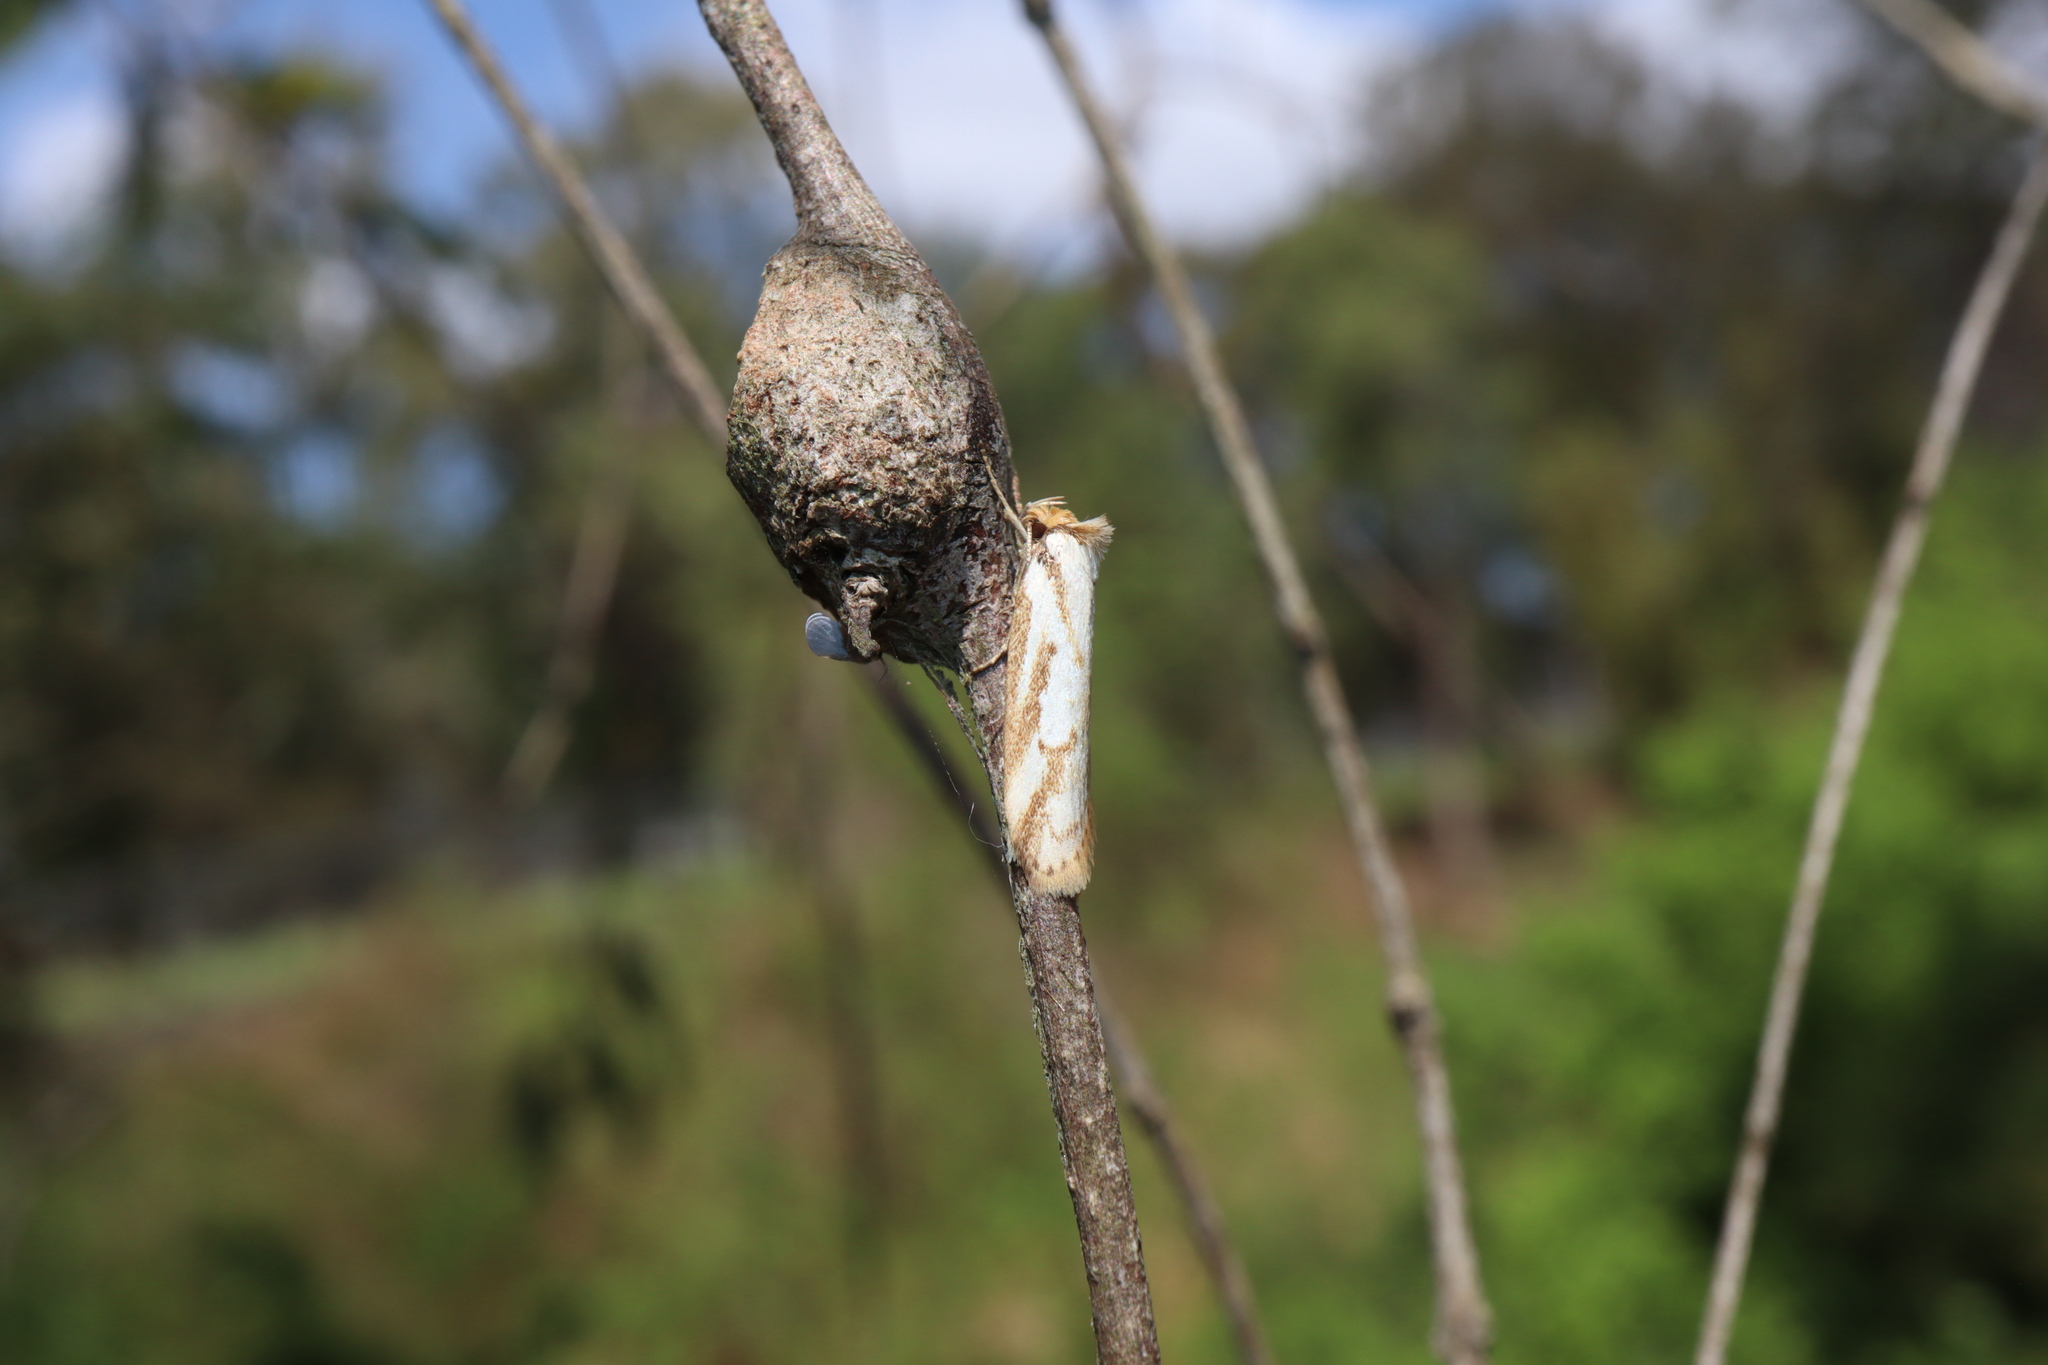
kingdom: Animalia
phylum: Arthropoda
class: Insecta
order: Lepidoptera
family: Oecophoridae
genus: Philobota
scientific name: Philobota cretacea
